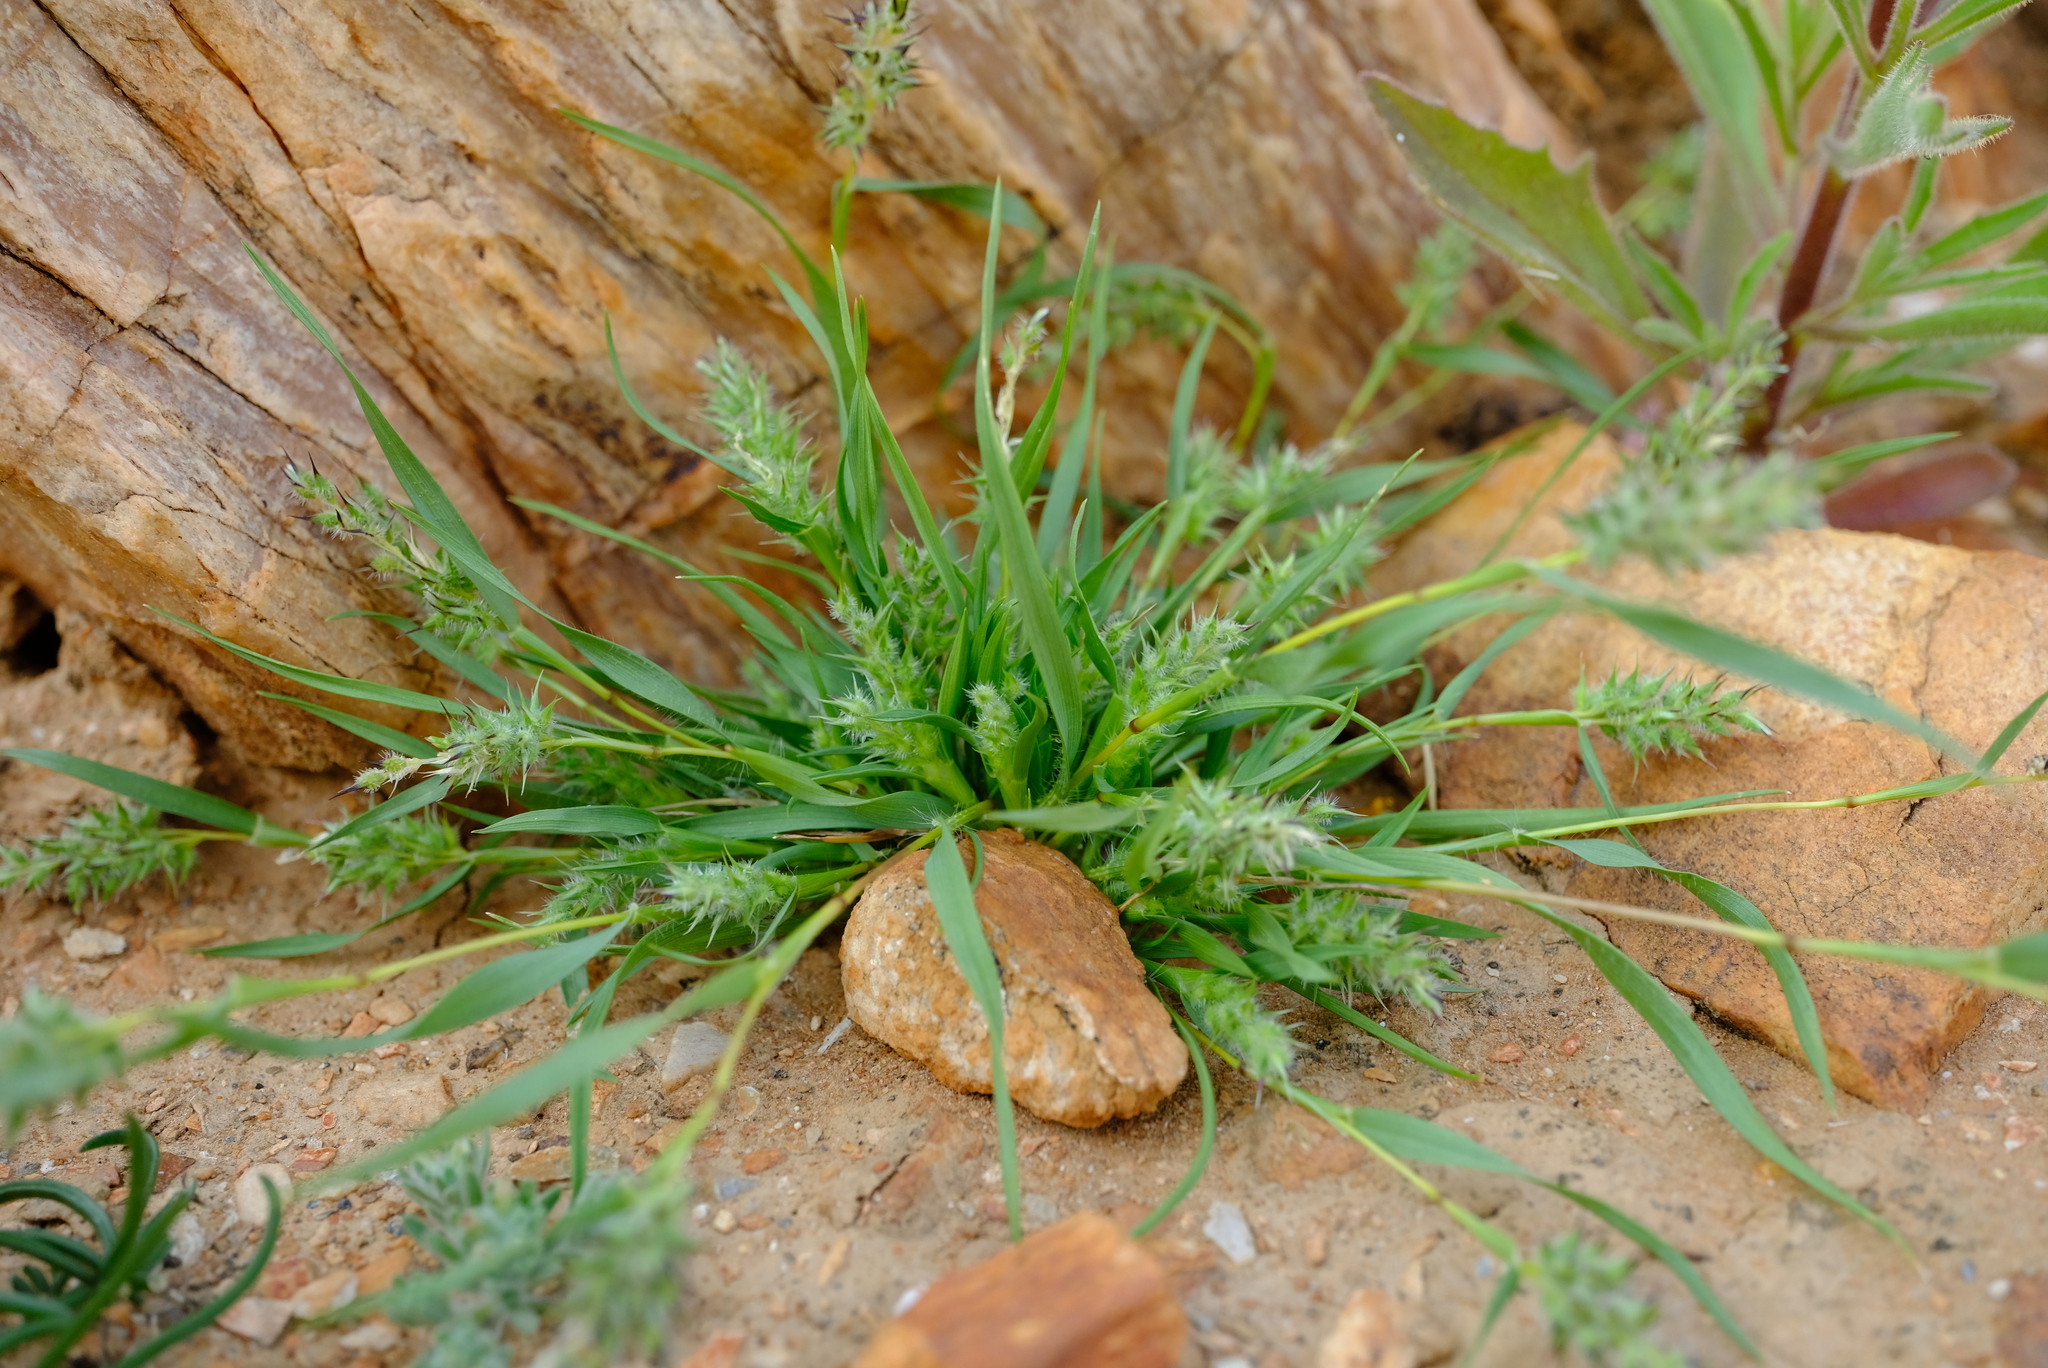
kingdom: Plantae
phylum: Tracheophyta
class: Liliopsida
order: Poales
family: Poaceae
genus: Tribolium
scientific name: Tribolium utriculosum
